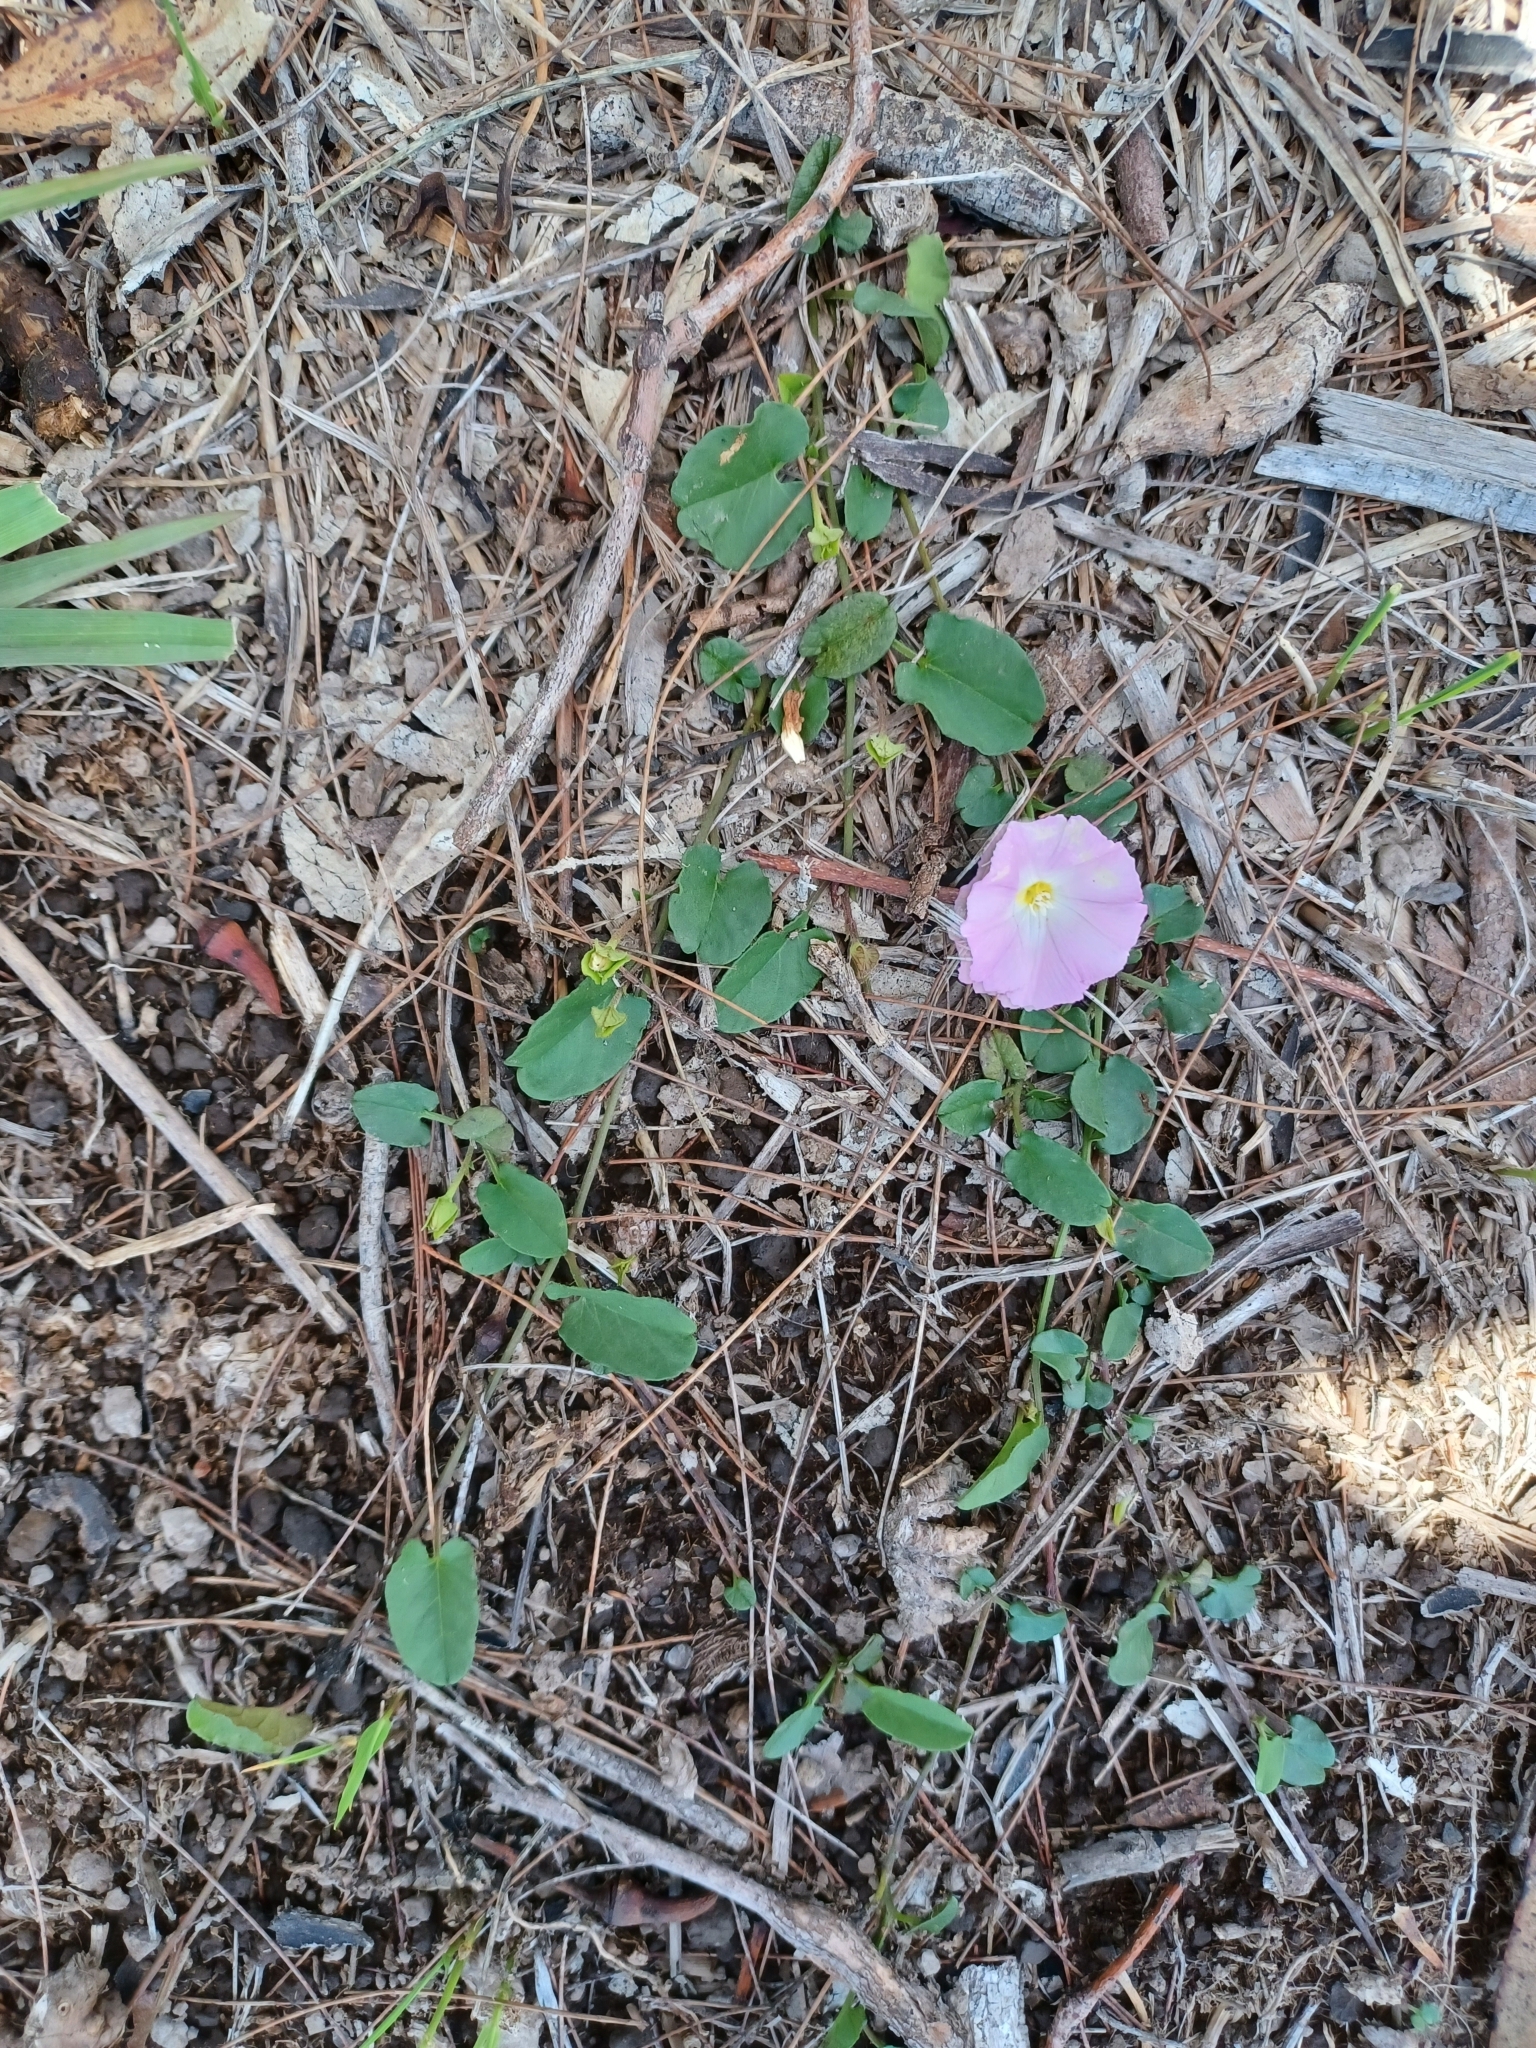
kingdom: Plantae
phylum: Tracheophyta
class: Magnoliopsida
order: Solanales
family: Convolvulaceae
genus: Polymeria
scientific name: Polymeria calycina
